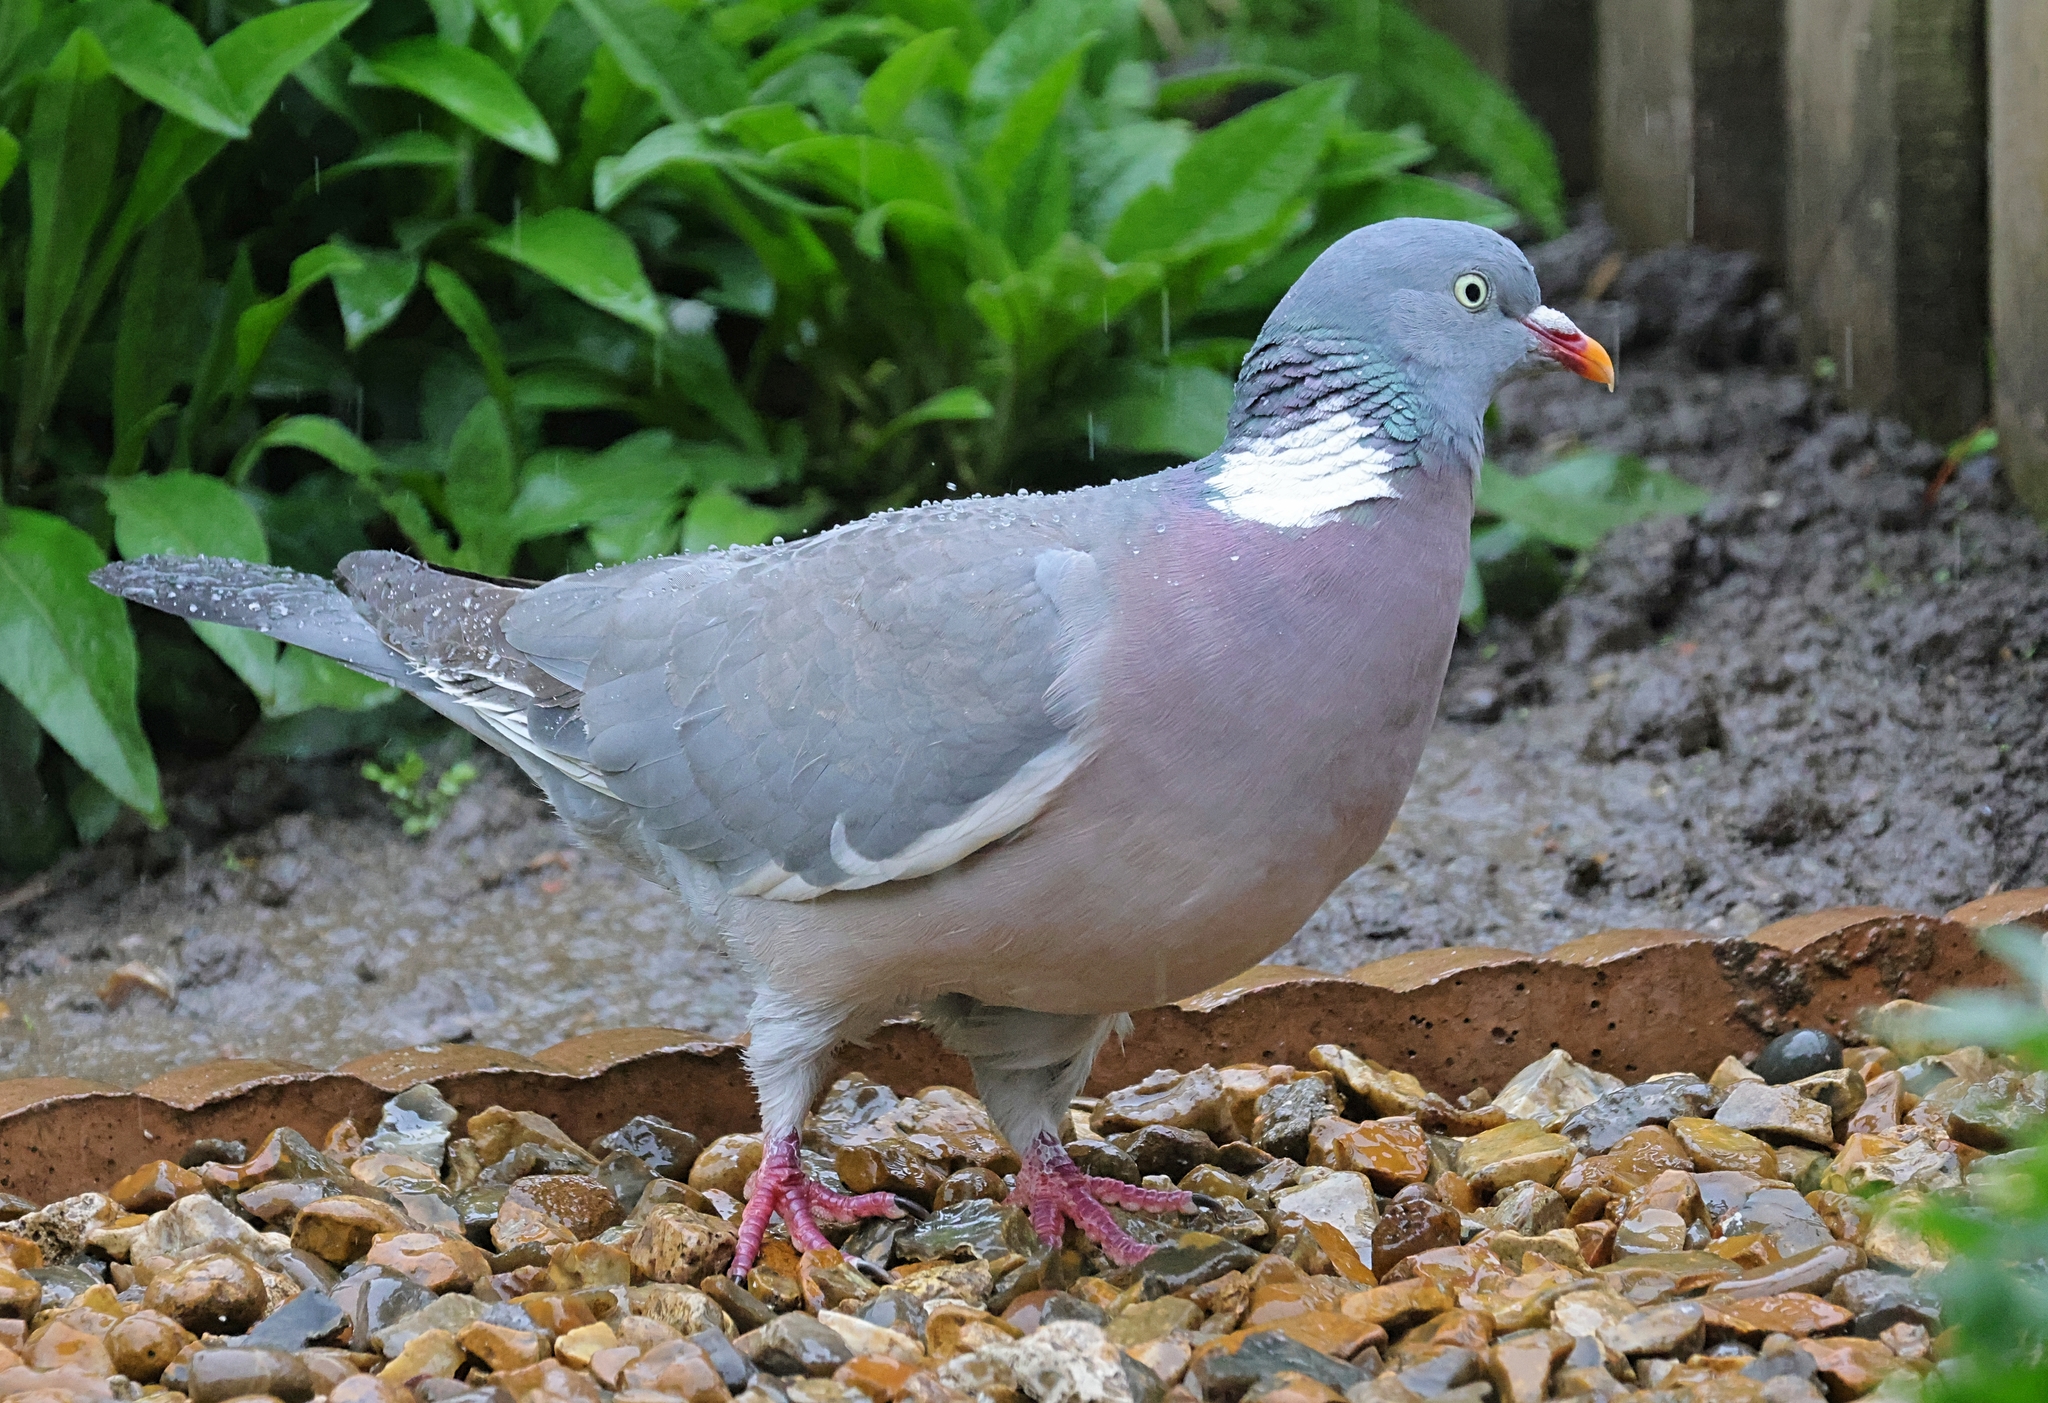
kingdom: Animalia
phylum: Chordata
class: Aves
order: Columbiformes
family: Columbidae
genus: Columba
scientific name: Columba palumbus
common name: Common wood pigeon
